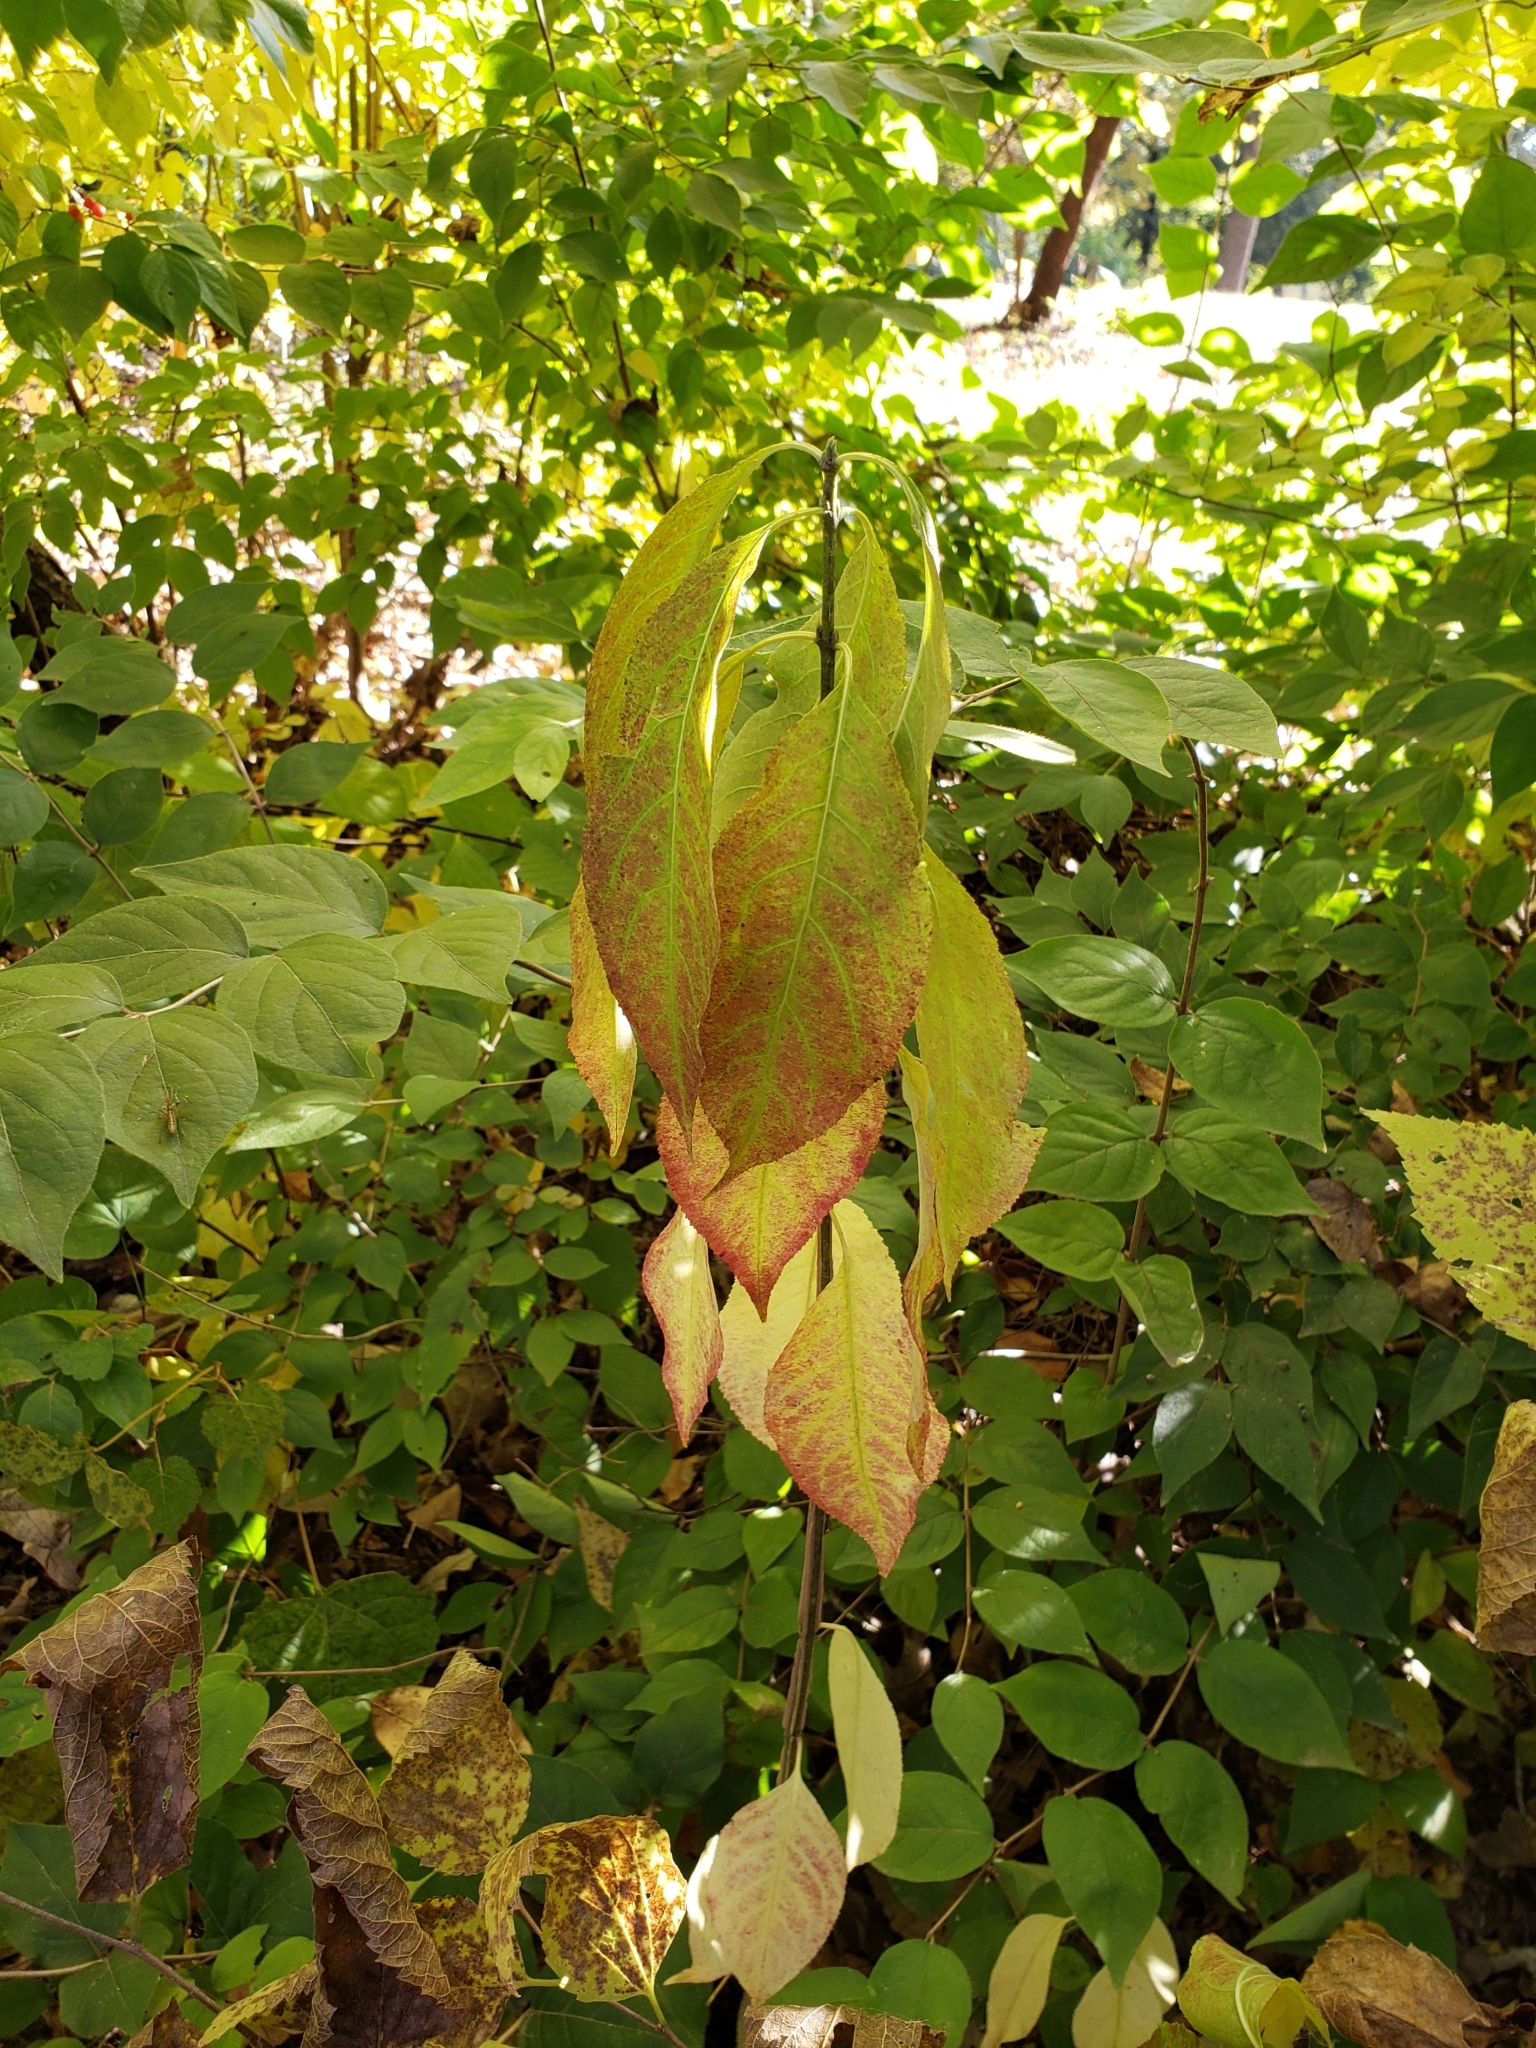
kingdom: Plantae
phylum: Tracheophyta
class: Magnoliopsida
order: Celastrales
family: Celastraceae
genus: Euonymus
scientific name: Euonymus atropurpureus
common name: Eastern wahoo
